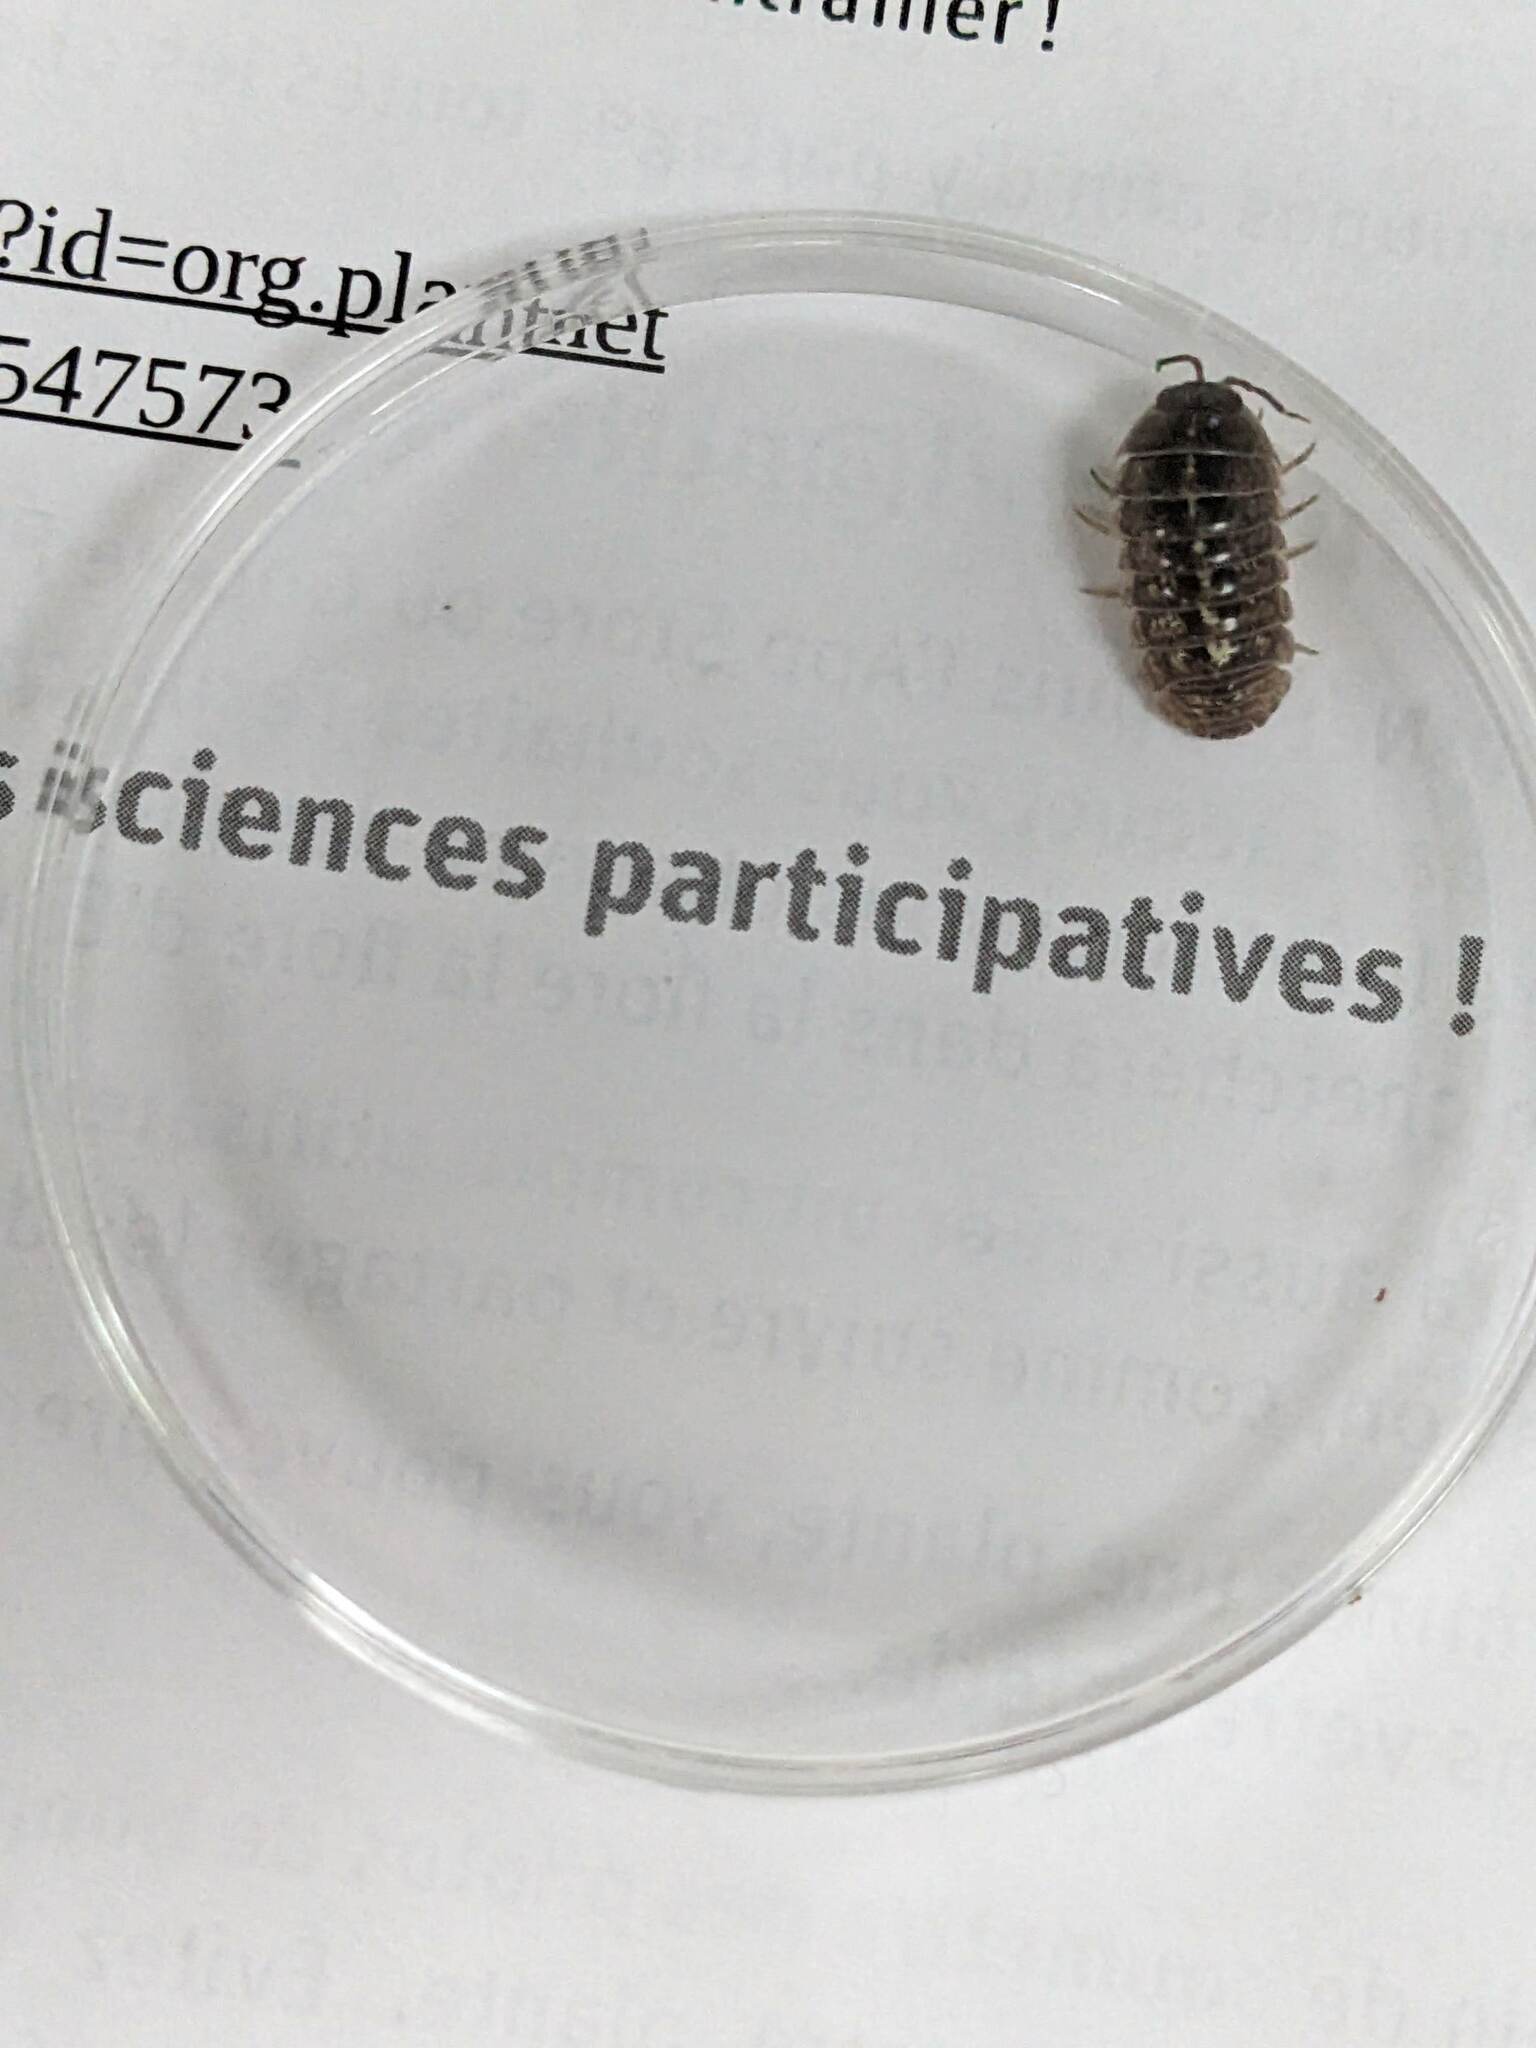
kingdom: Animalia
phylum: Arthropoda
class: Malacostraca
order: Isopoda
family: Armadillidiidae
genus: Armadillidium
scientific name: Armadillidium vulgare
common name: Common pill woodlouse
